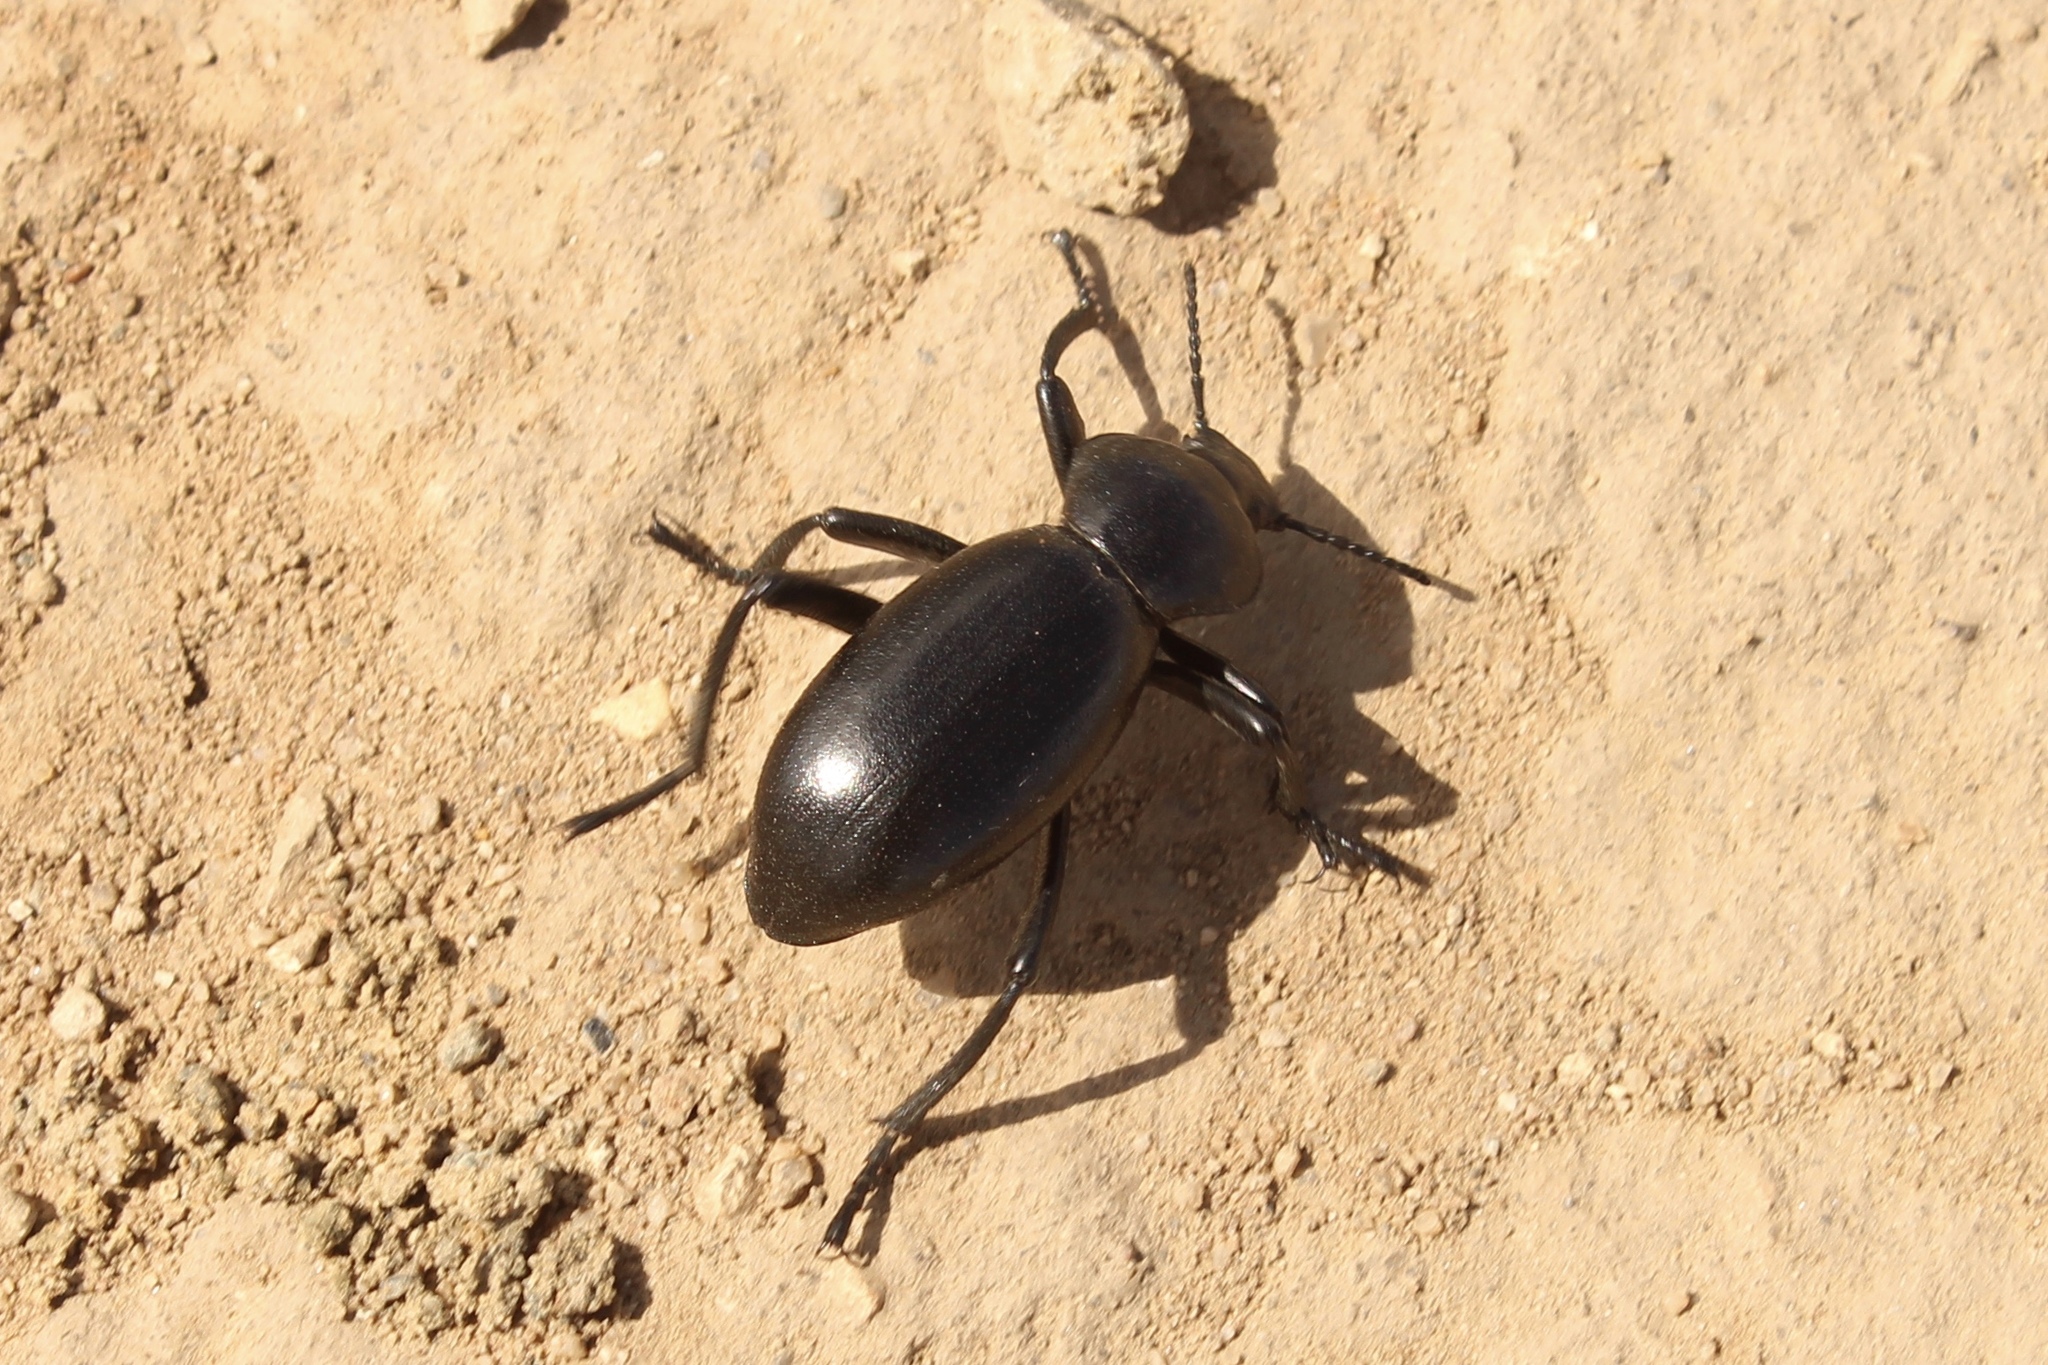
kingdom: Animalia
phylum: Arthropoda
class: Insecta
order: Coleoptera
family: Tenebrionidae
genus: Eleodes
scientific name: Eleodes grandicollis
